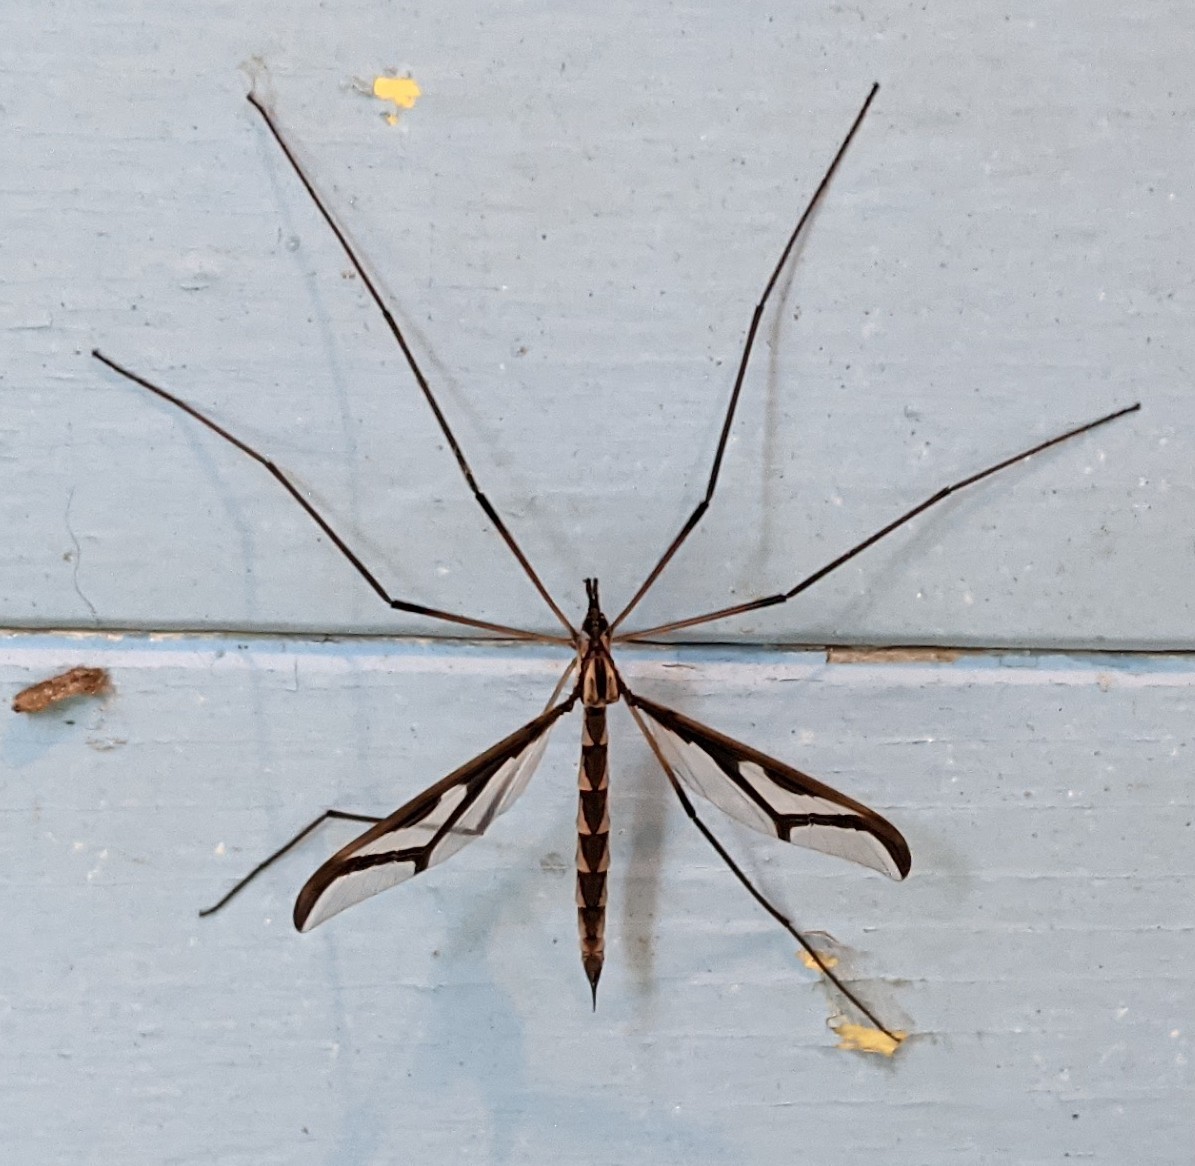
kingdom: Animalia
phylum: Arthropoda
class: Insecta
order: Diptera
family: Pediciidae
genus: Pedicia
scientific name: Pedicia albivitta
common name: Giant eastern crane fly
